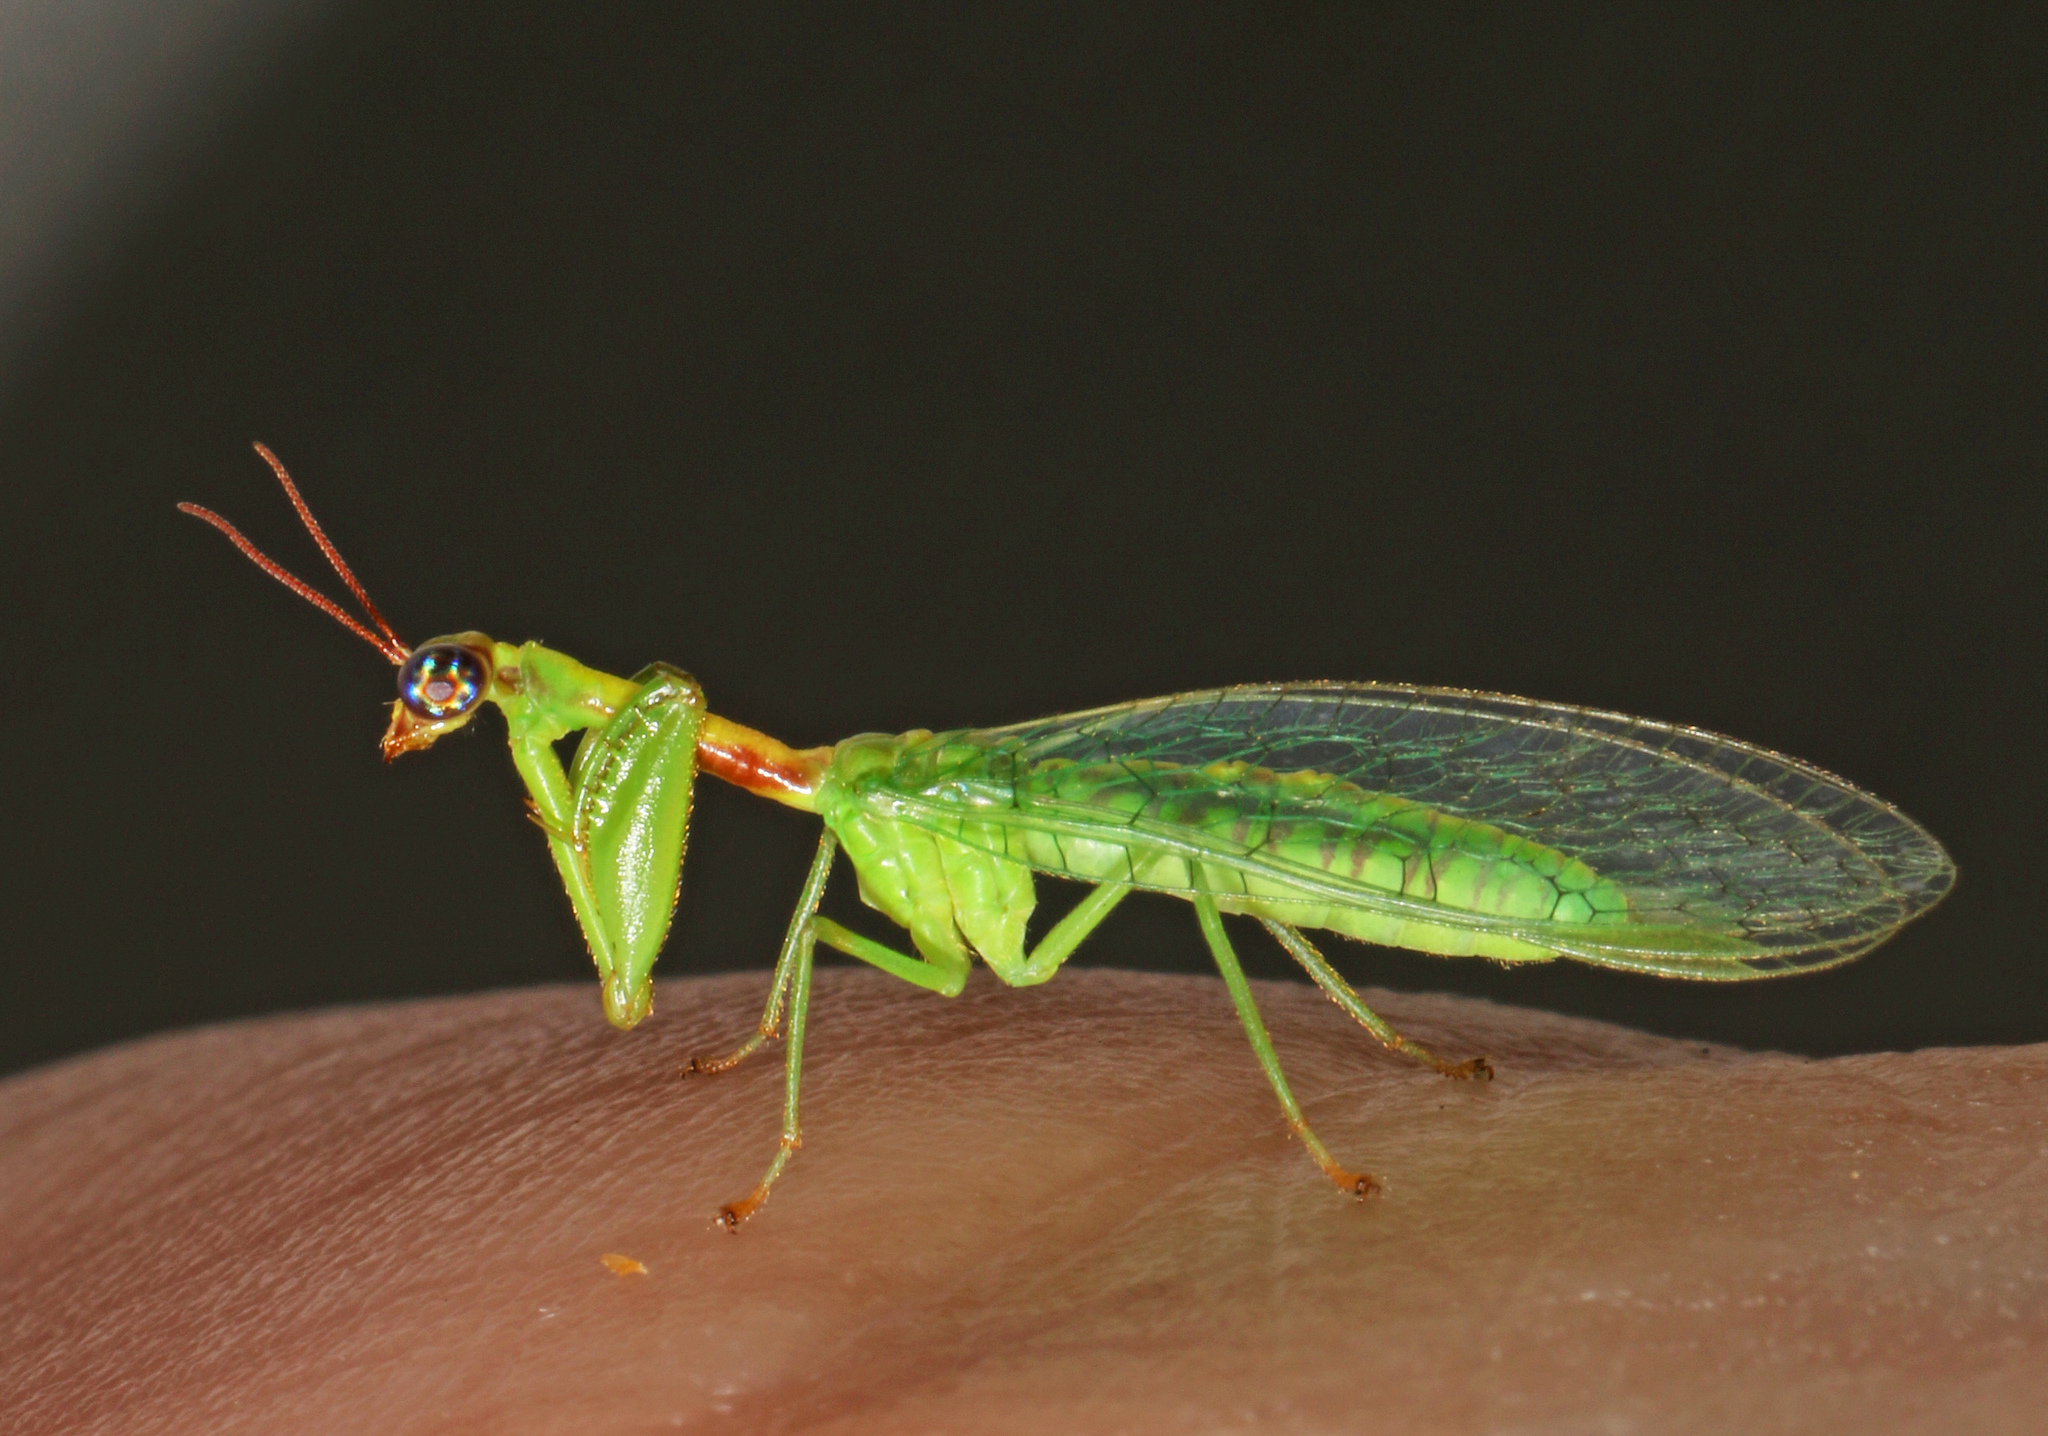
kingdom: Animalia
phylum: Arthropoda
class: Insecta
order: Neuroptera
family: Mantispidae
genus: Zeugomantispa
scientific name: Zeugomantispa minuta
